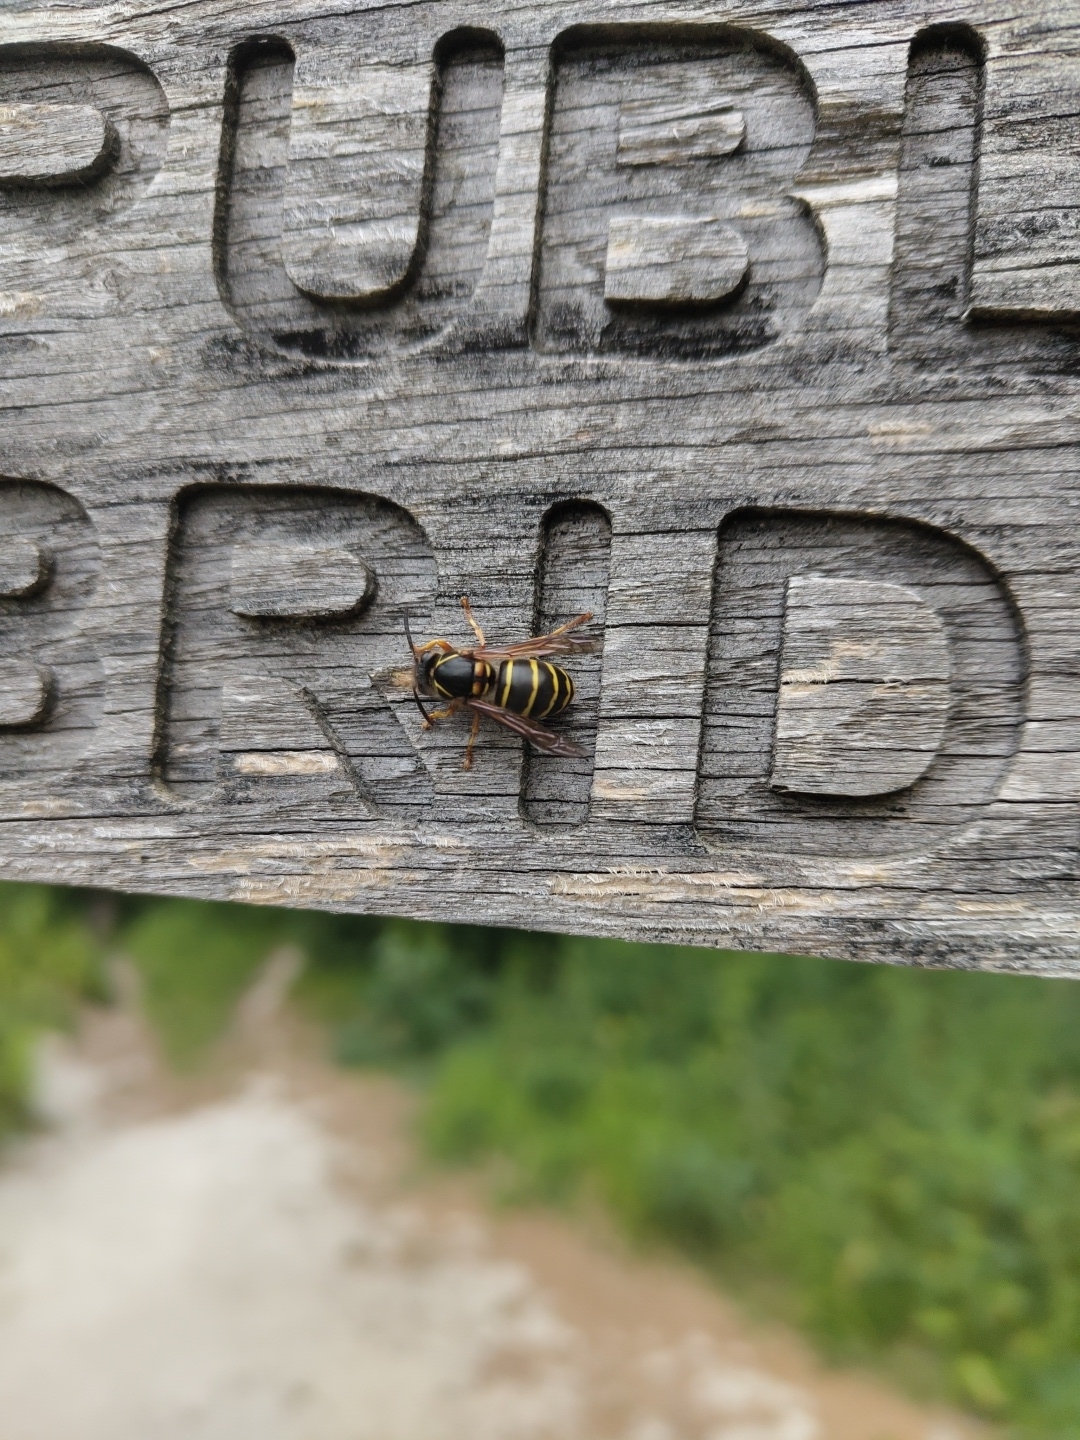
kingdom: Animalia
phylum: Arthropoda
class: Insecta
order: Hymenoptera
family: Vespidae
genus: Dolichovespula
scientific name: Dolichovespula media
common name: Median wasp
